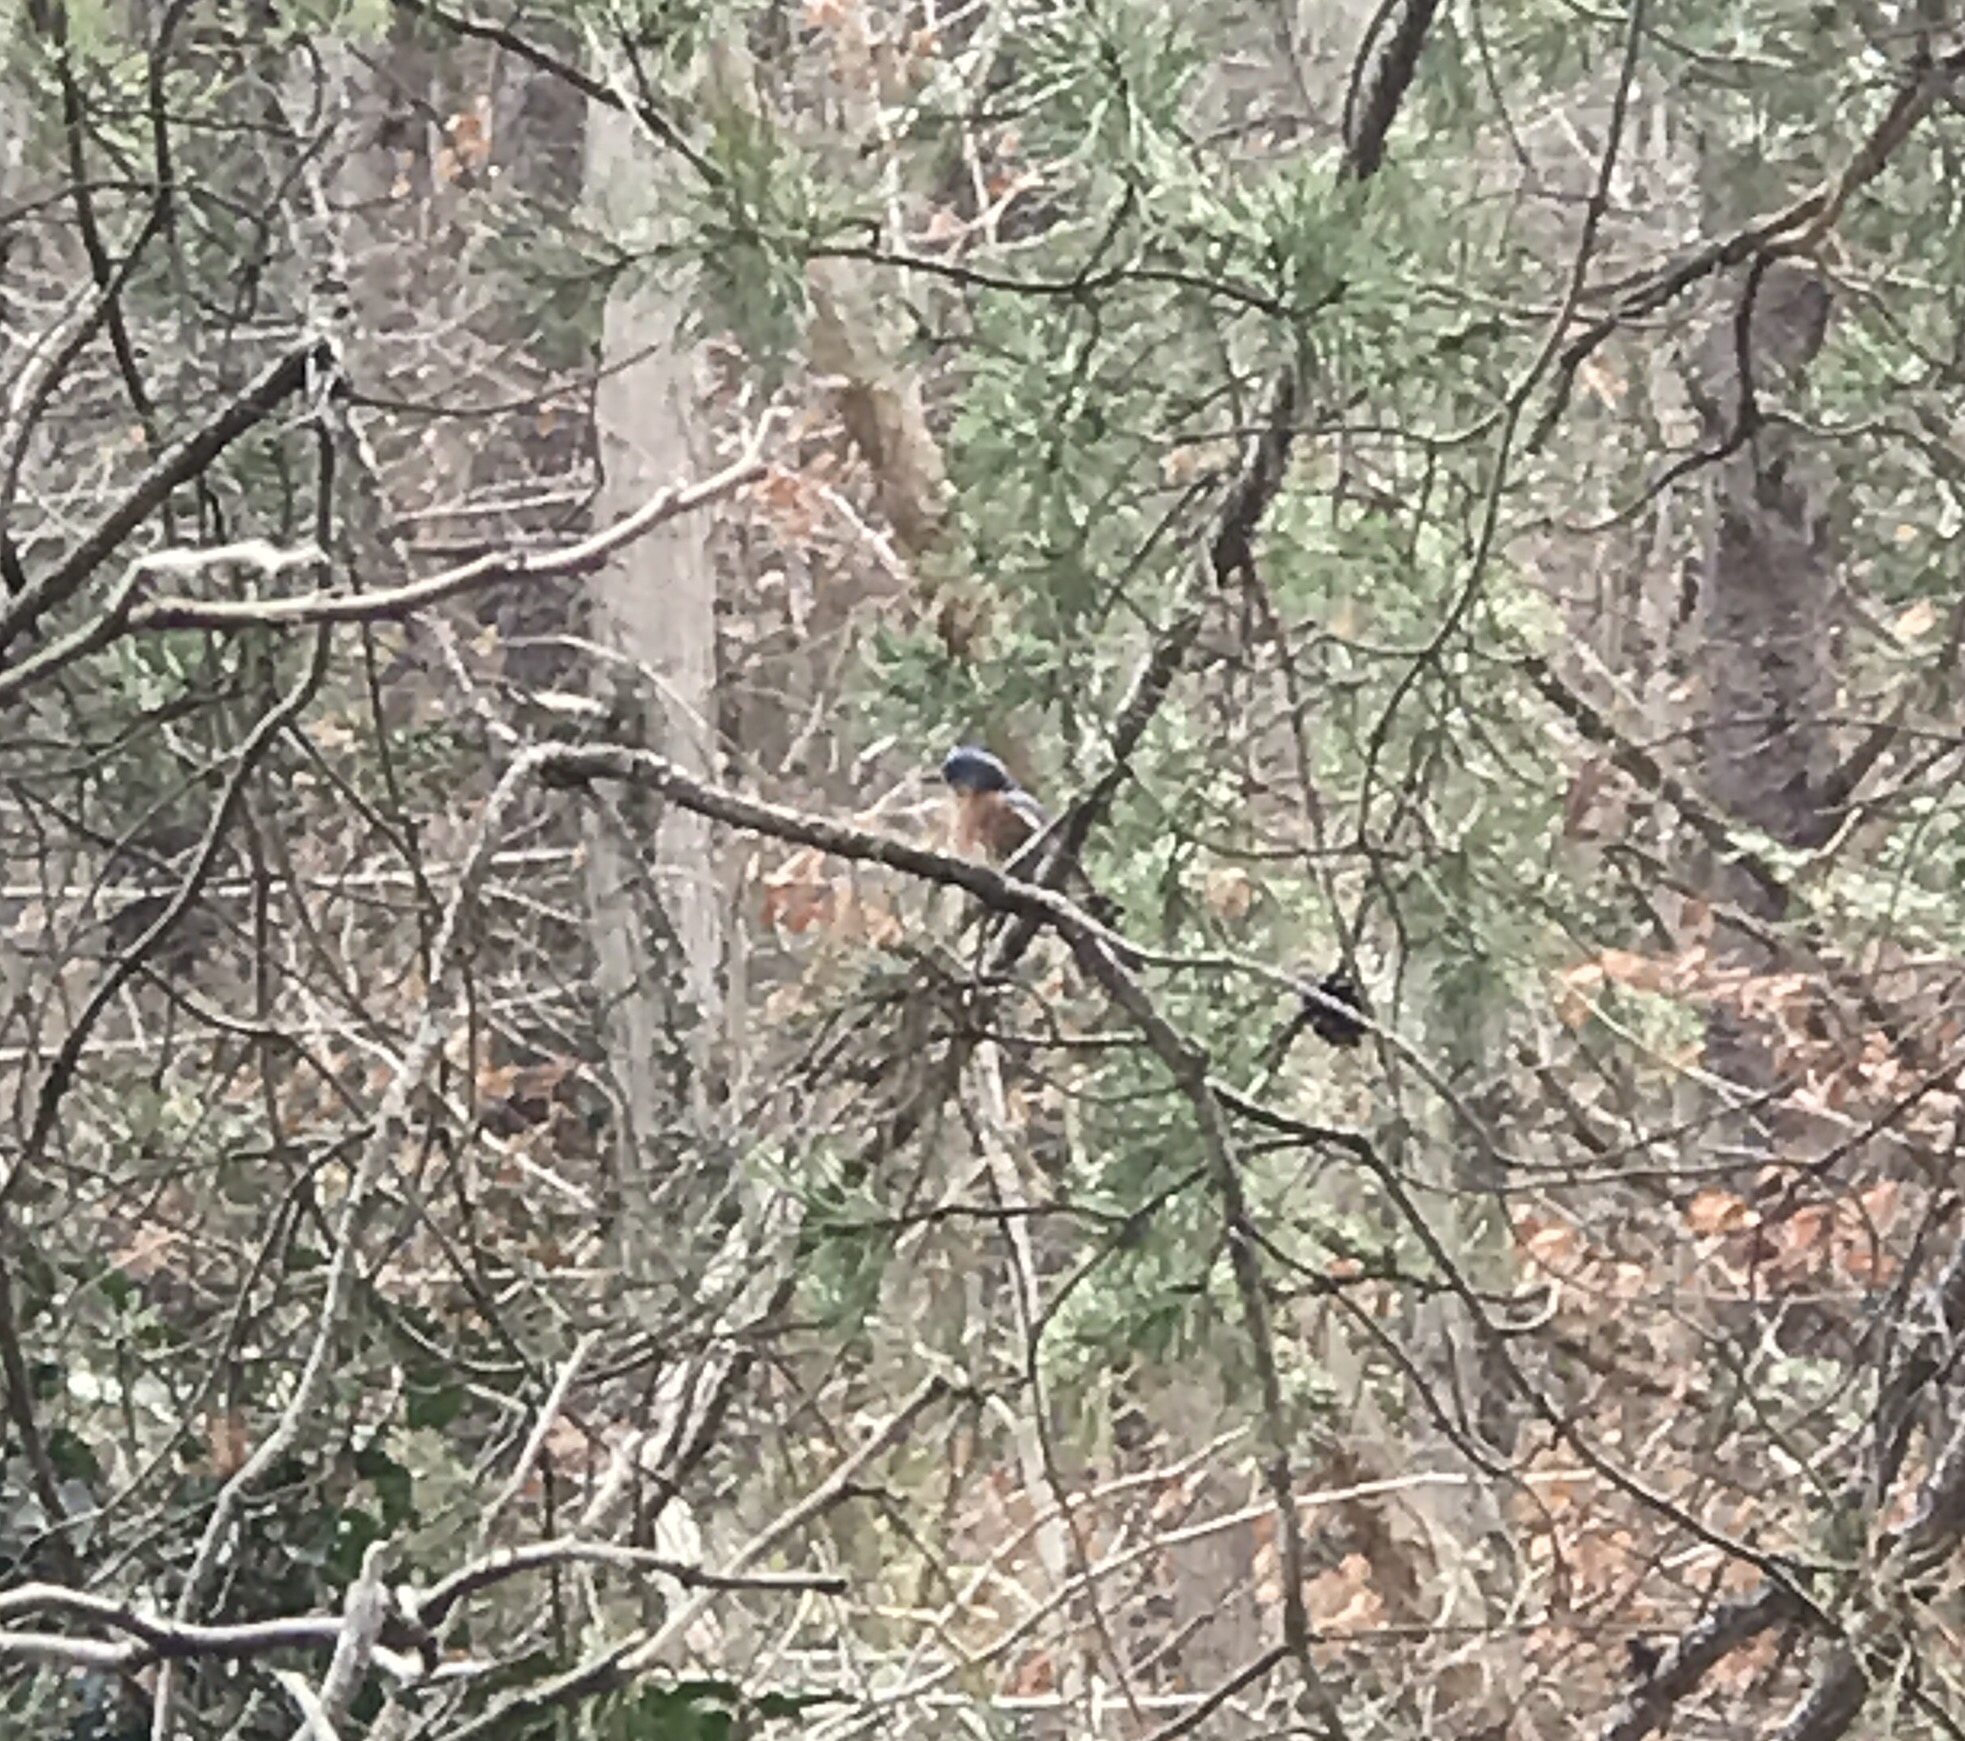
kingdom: Animalia
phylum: Chordata
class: Aves
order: Passeriformes
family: Turdidae
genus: Sialia
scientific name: Sialia sialis
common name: Eastern bluebird
